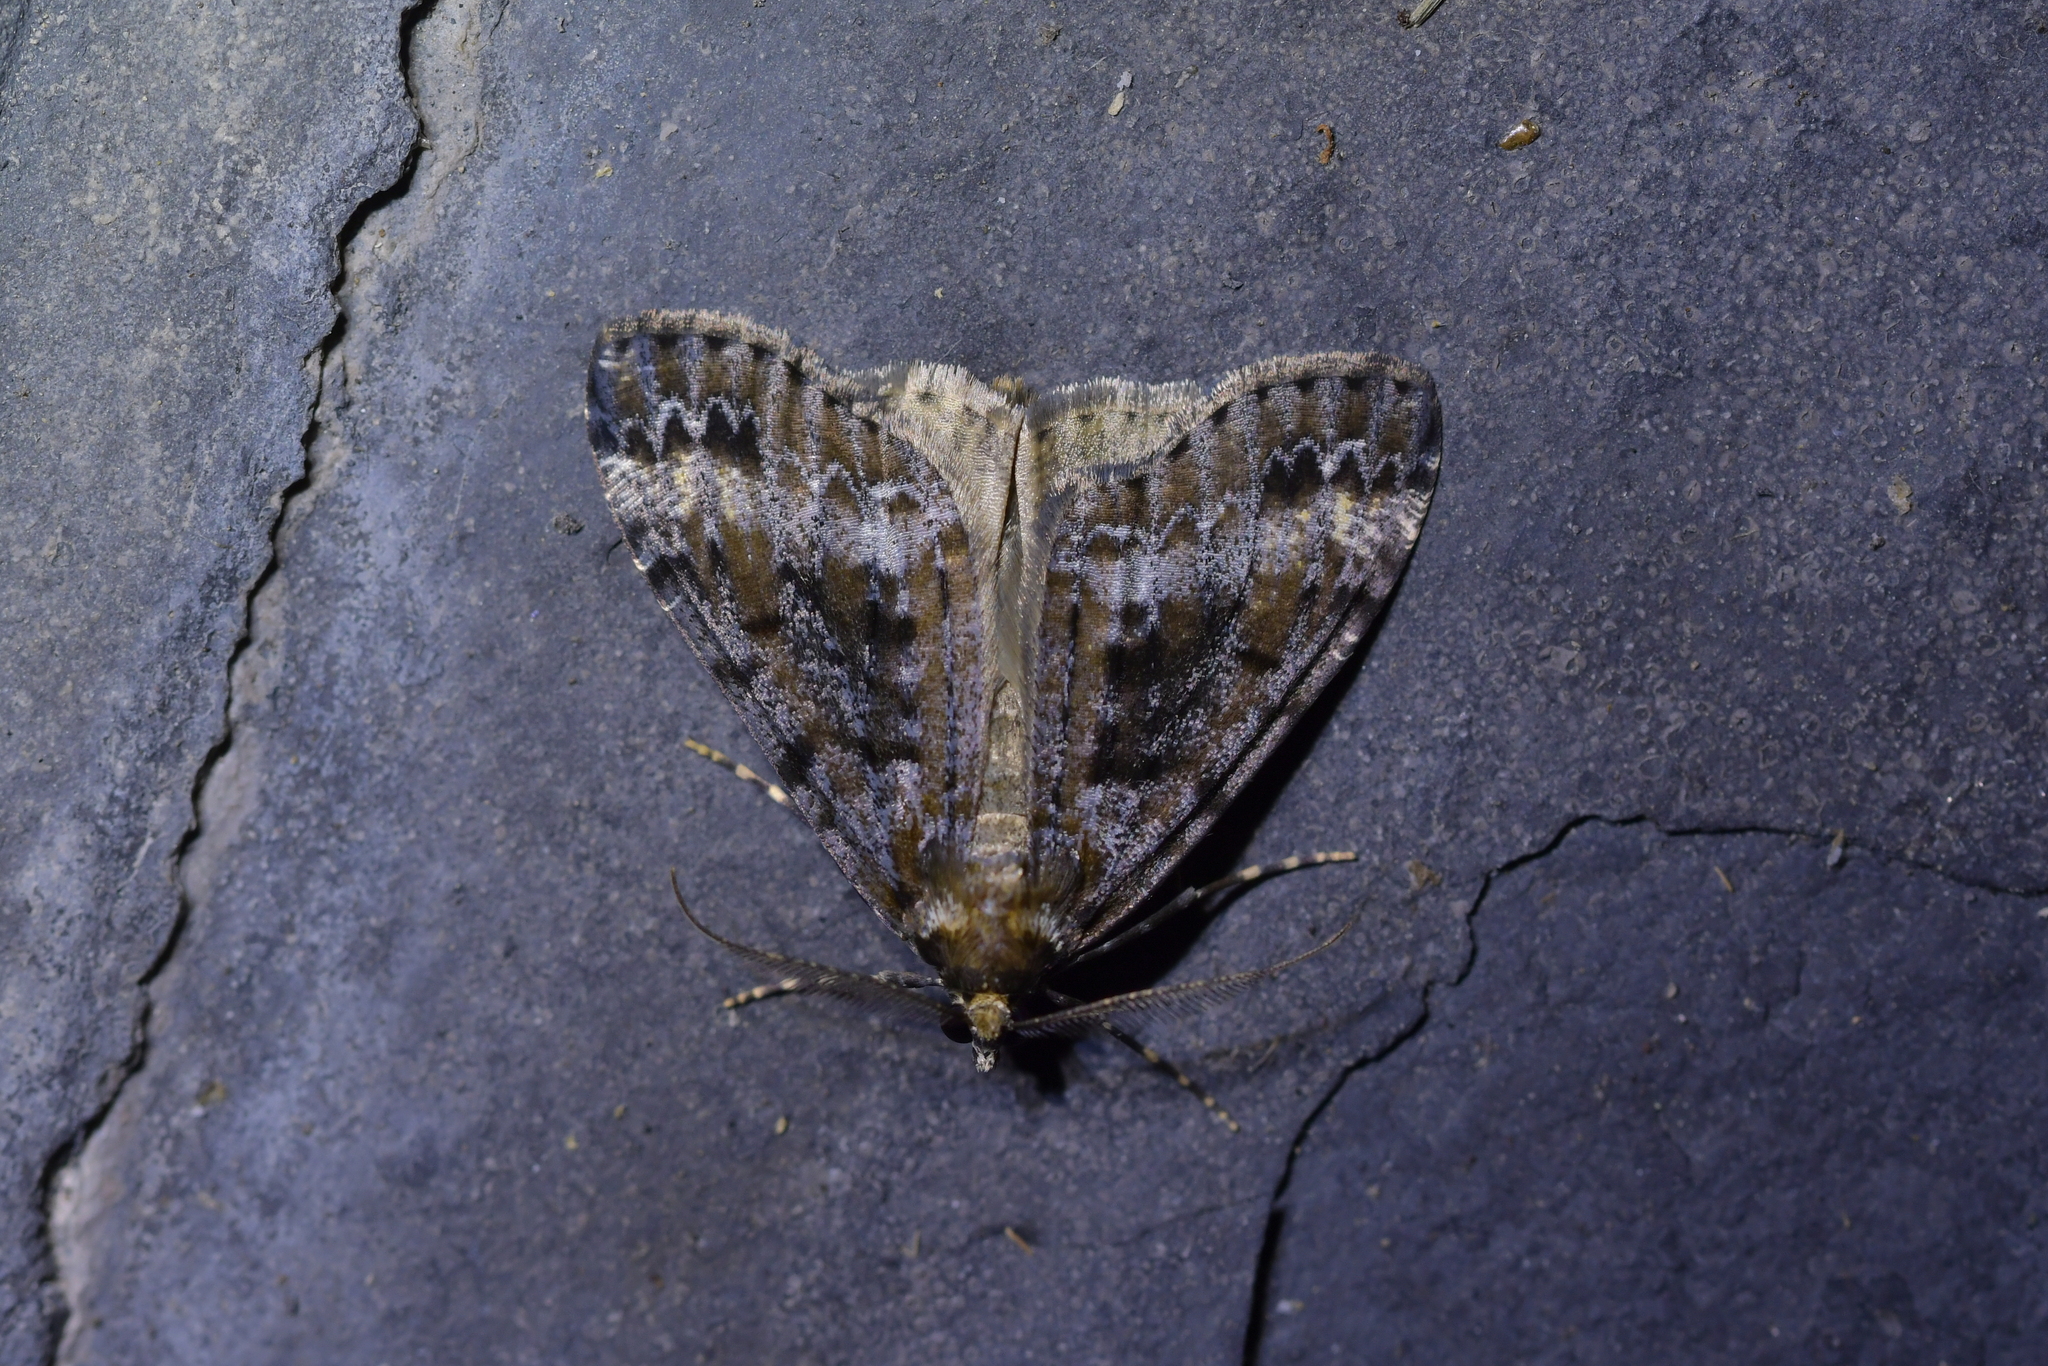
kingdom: Animalia
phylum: Arthropoda
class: Insecta
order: Lepidoptera
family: Geometridae
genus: Pseudocoremia
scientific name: Pseudocoremia leucelaea
